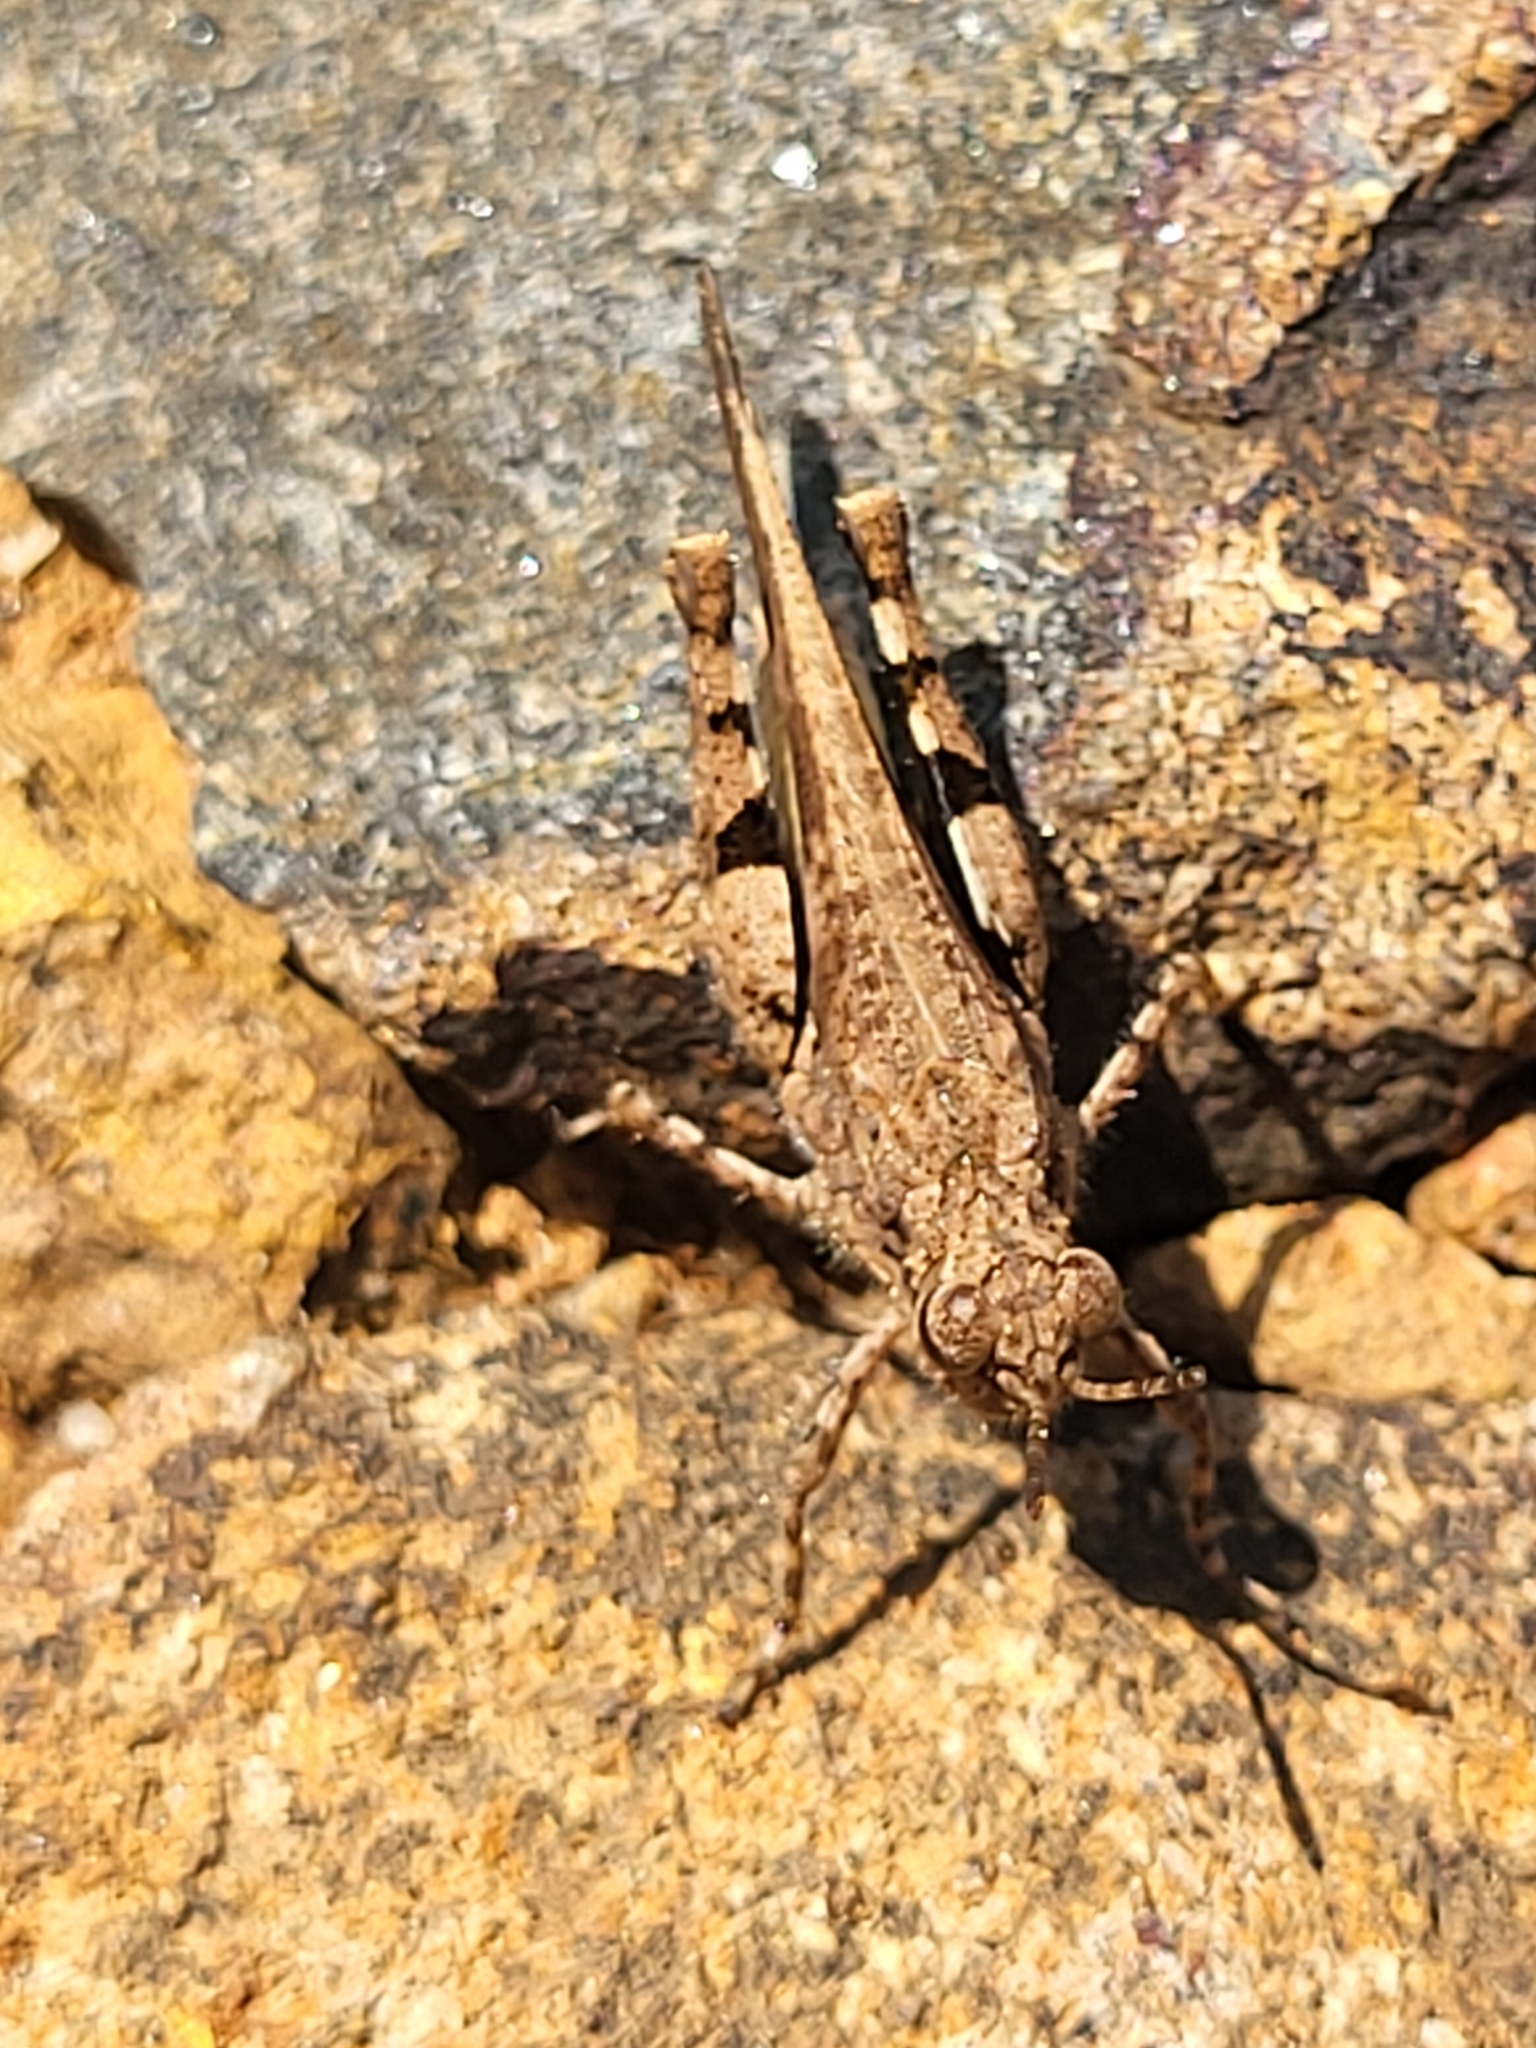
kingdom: Animalia
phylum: Arthropoda
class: Insecta
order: Orthoptera
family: Acrididae
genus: Trilophidia
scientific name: Trilophidia annulata
